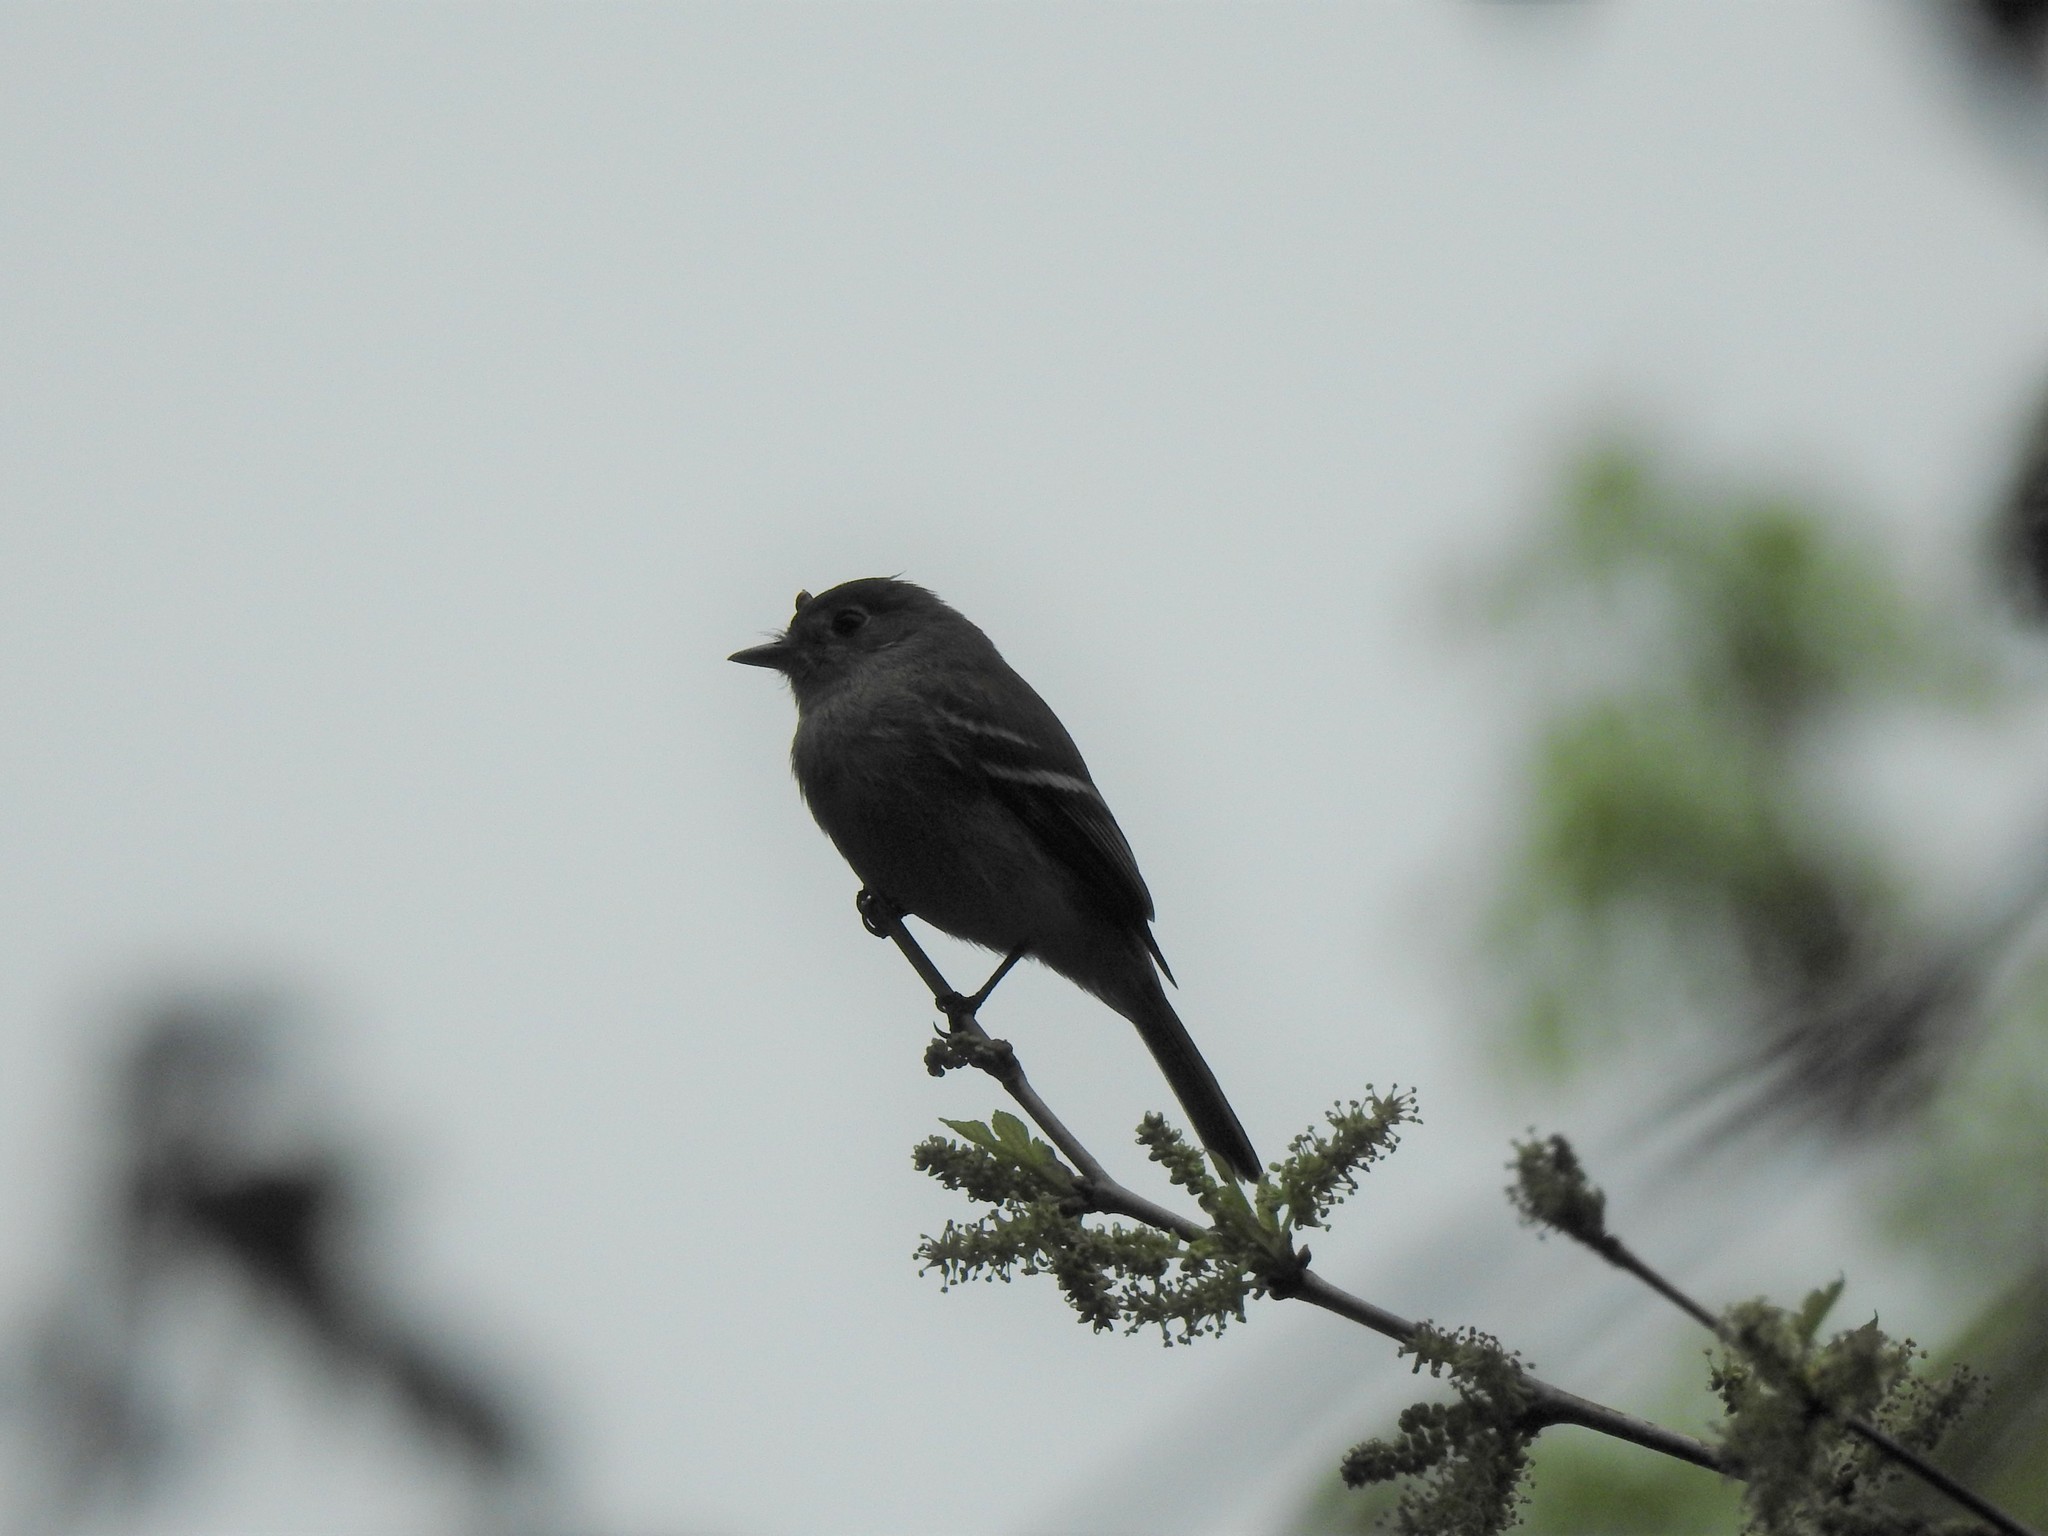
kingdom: Animalia
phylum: Chordata
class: Aves
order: Passeriformes
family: Tyrannidae
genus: Empidonax
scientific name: Empidonax minimus
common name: Least flycatcher
